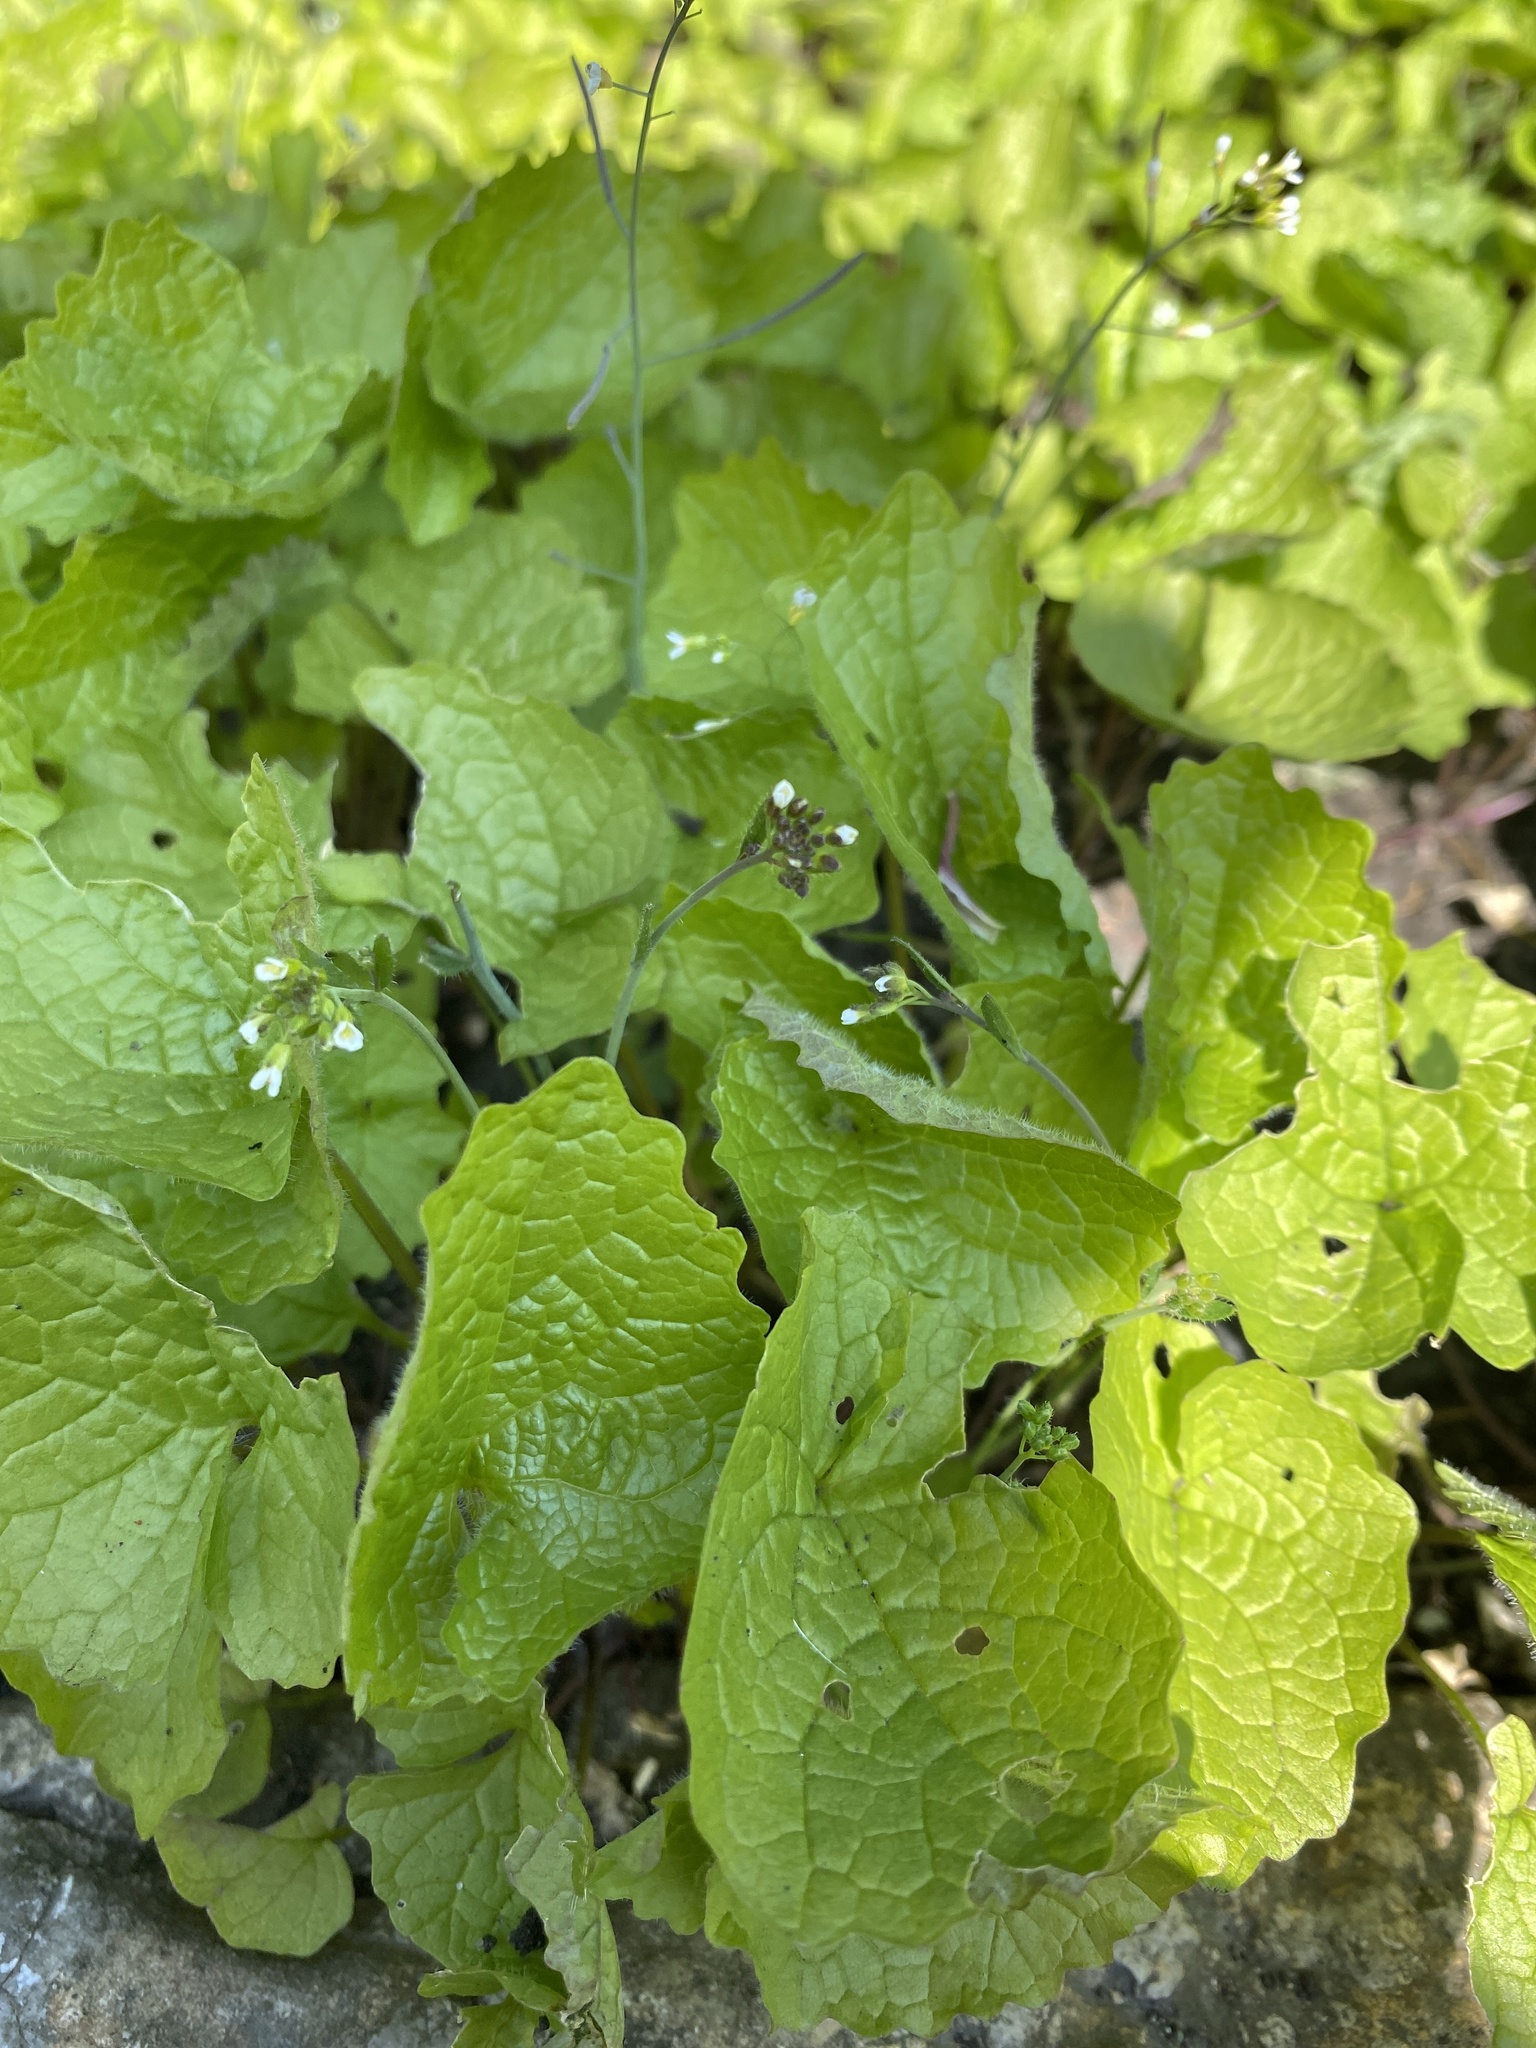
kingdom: Plantae
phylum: Tracheophyta
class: Magnoliopsida
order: Brassicales
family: Brassicaceae
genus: Alliaria
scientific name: Alliaria petiolata
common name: Garlic mustard
